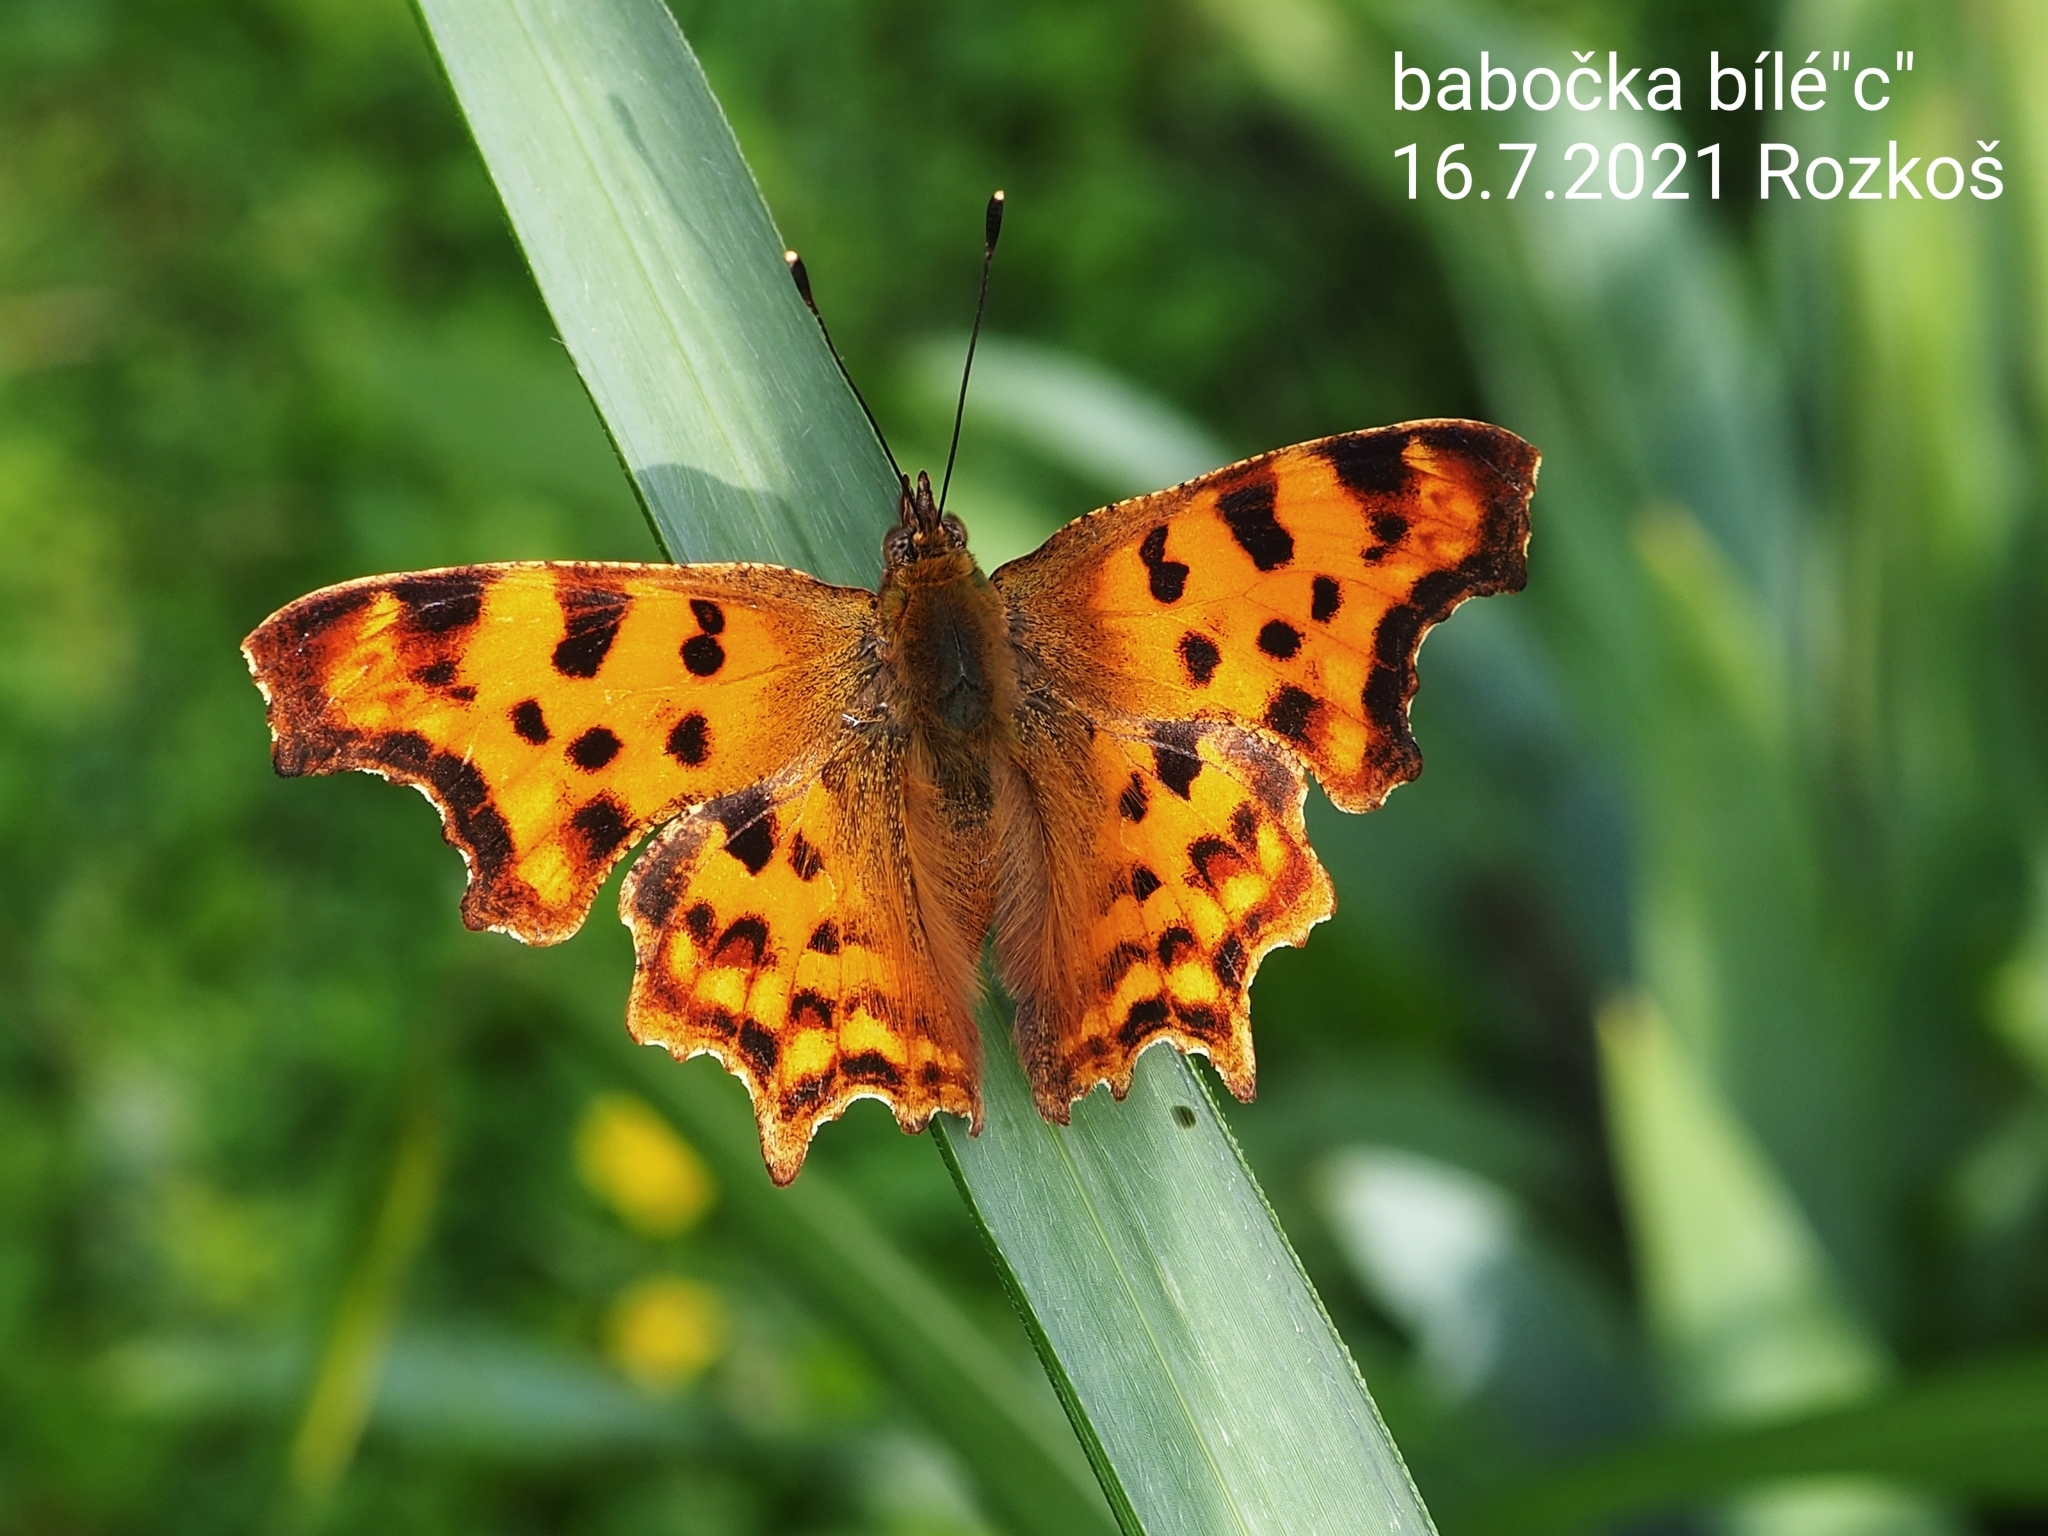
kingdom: Animalia
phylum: Arthropoda
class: Insecta
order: Lepidoptera
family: Nymphalidae
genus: Polygonia
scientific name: Polygonia c-album
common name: Comma
